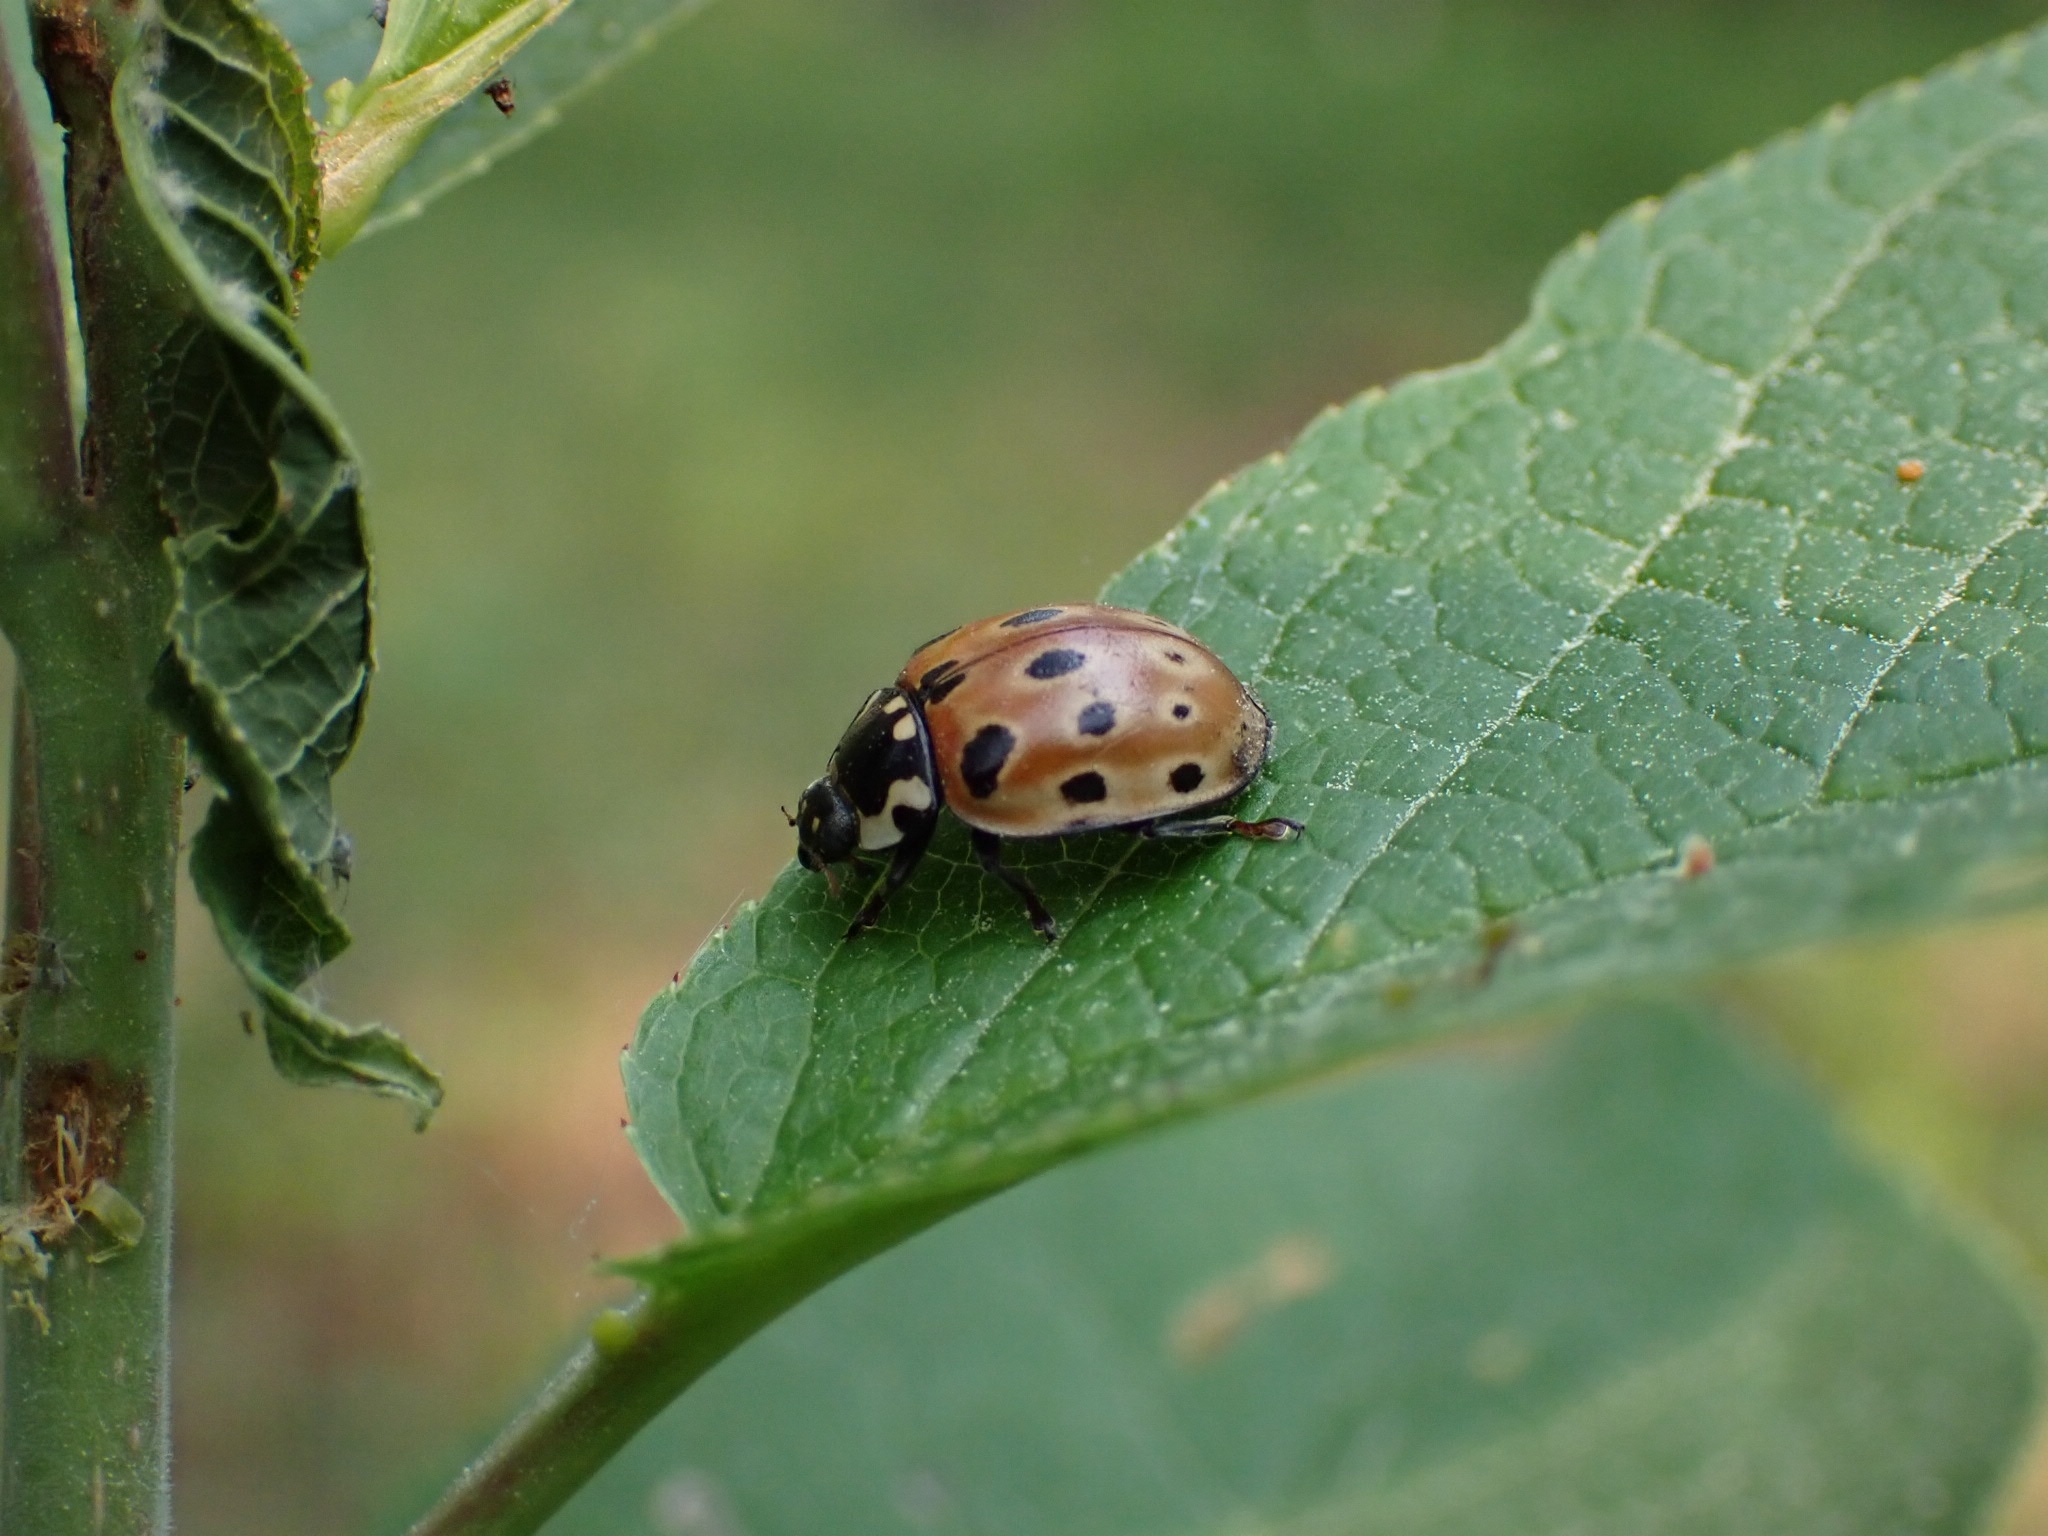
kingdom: Animalia
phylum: Arthropoda
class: Insecta
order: Coleoptera
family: Coccinellidae
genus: Anatis
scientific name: Anatis ocellata
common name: Eyed ladybird
